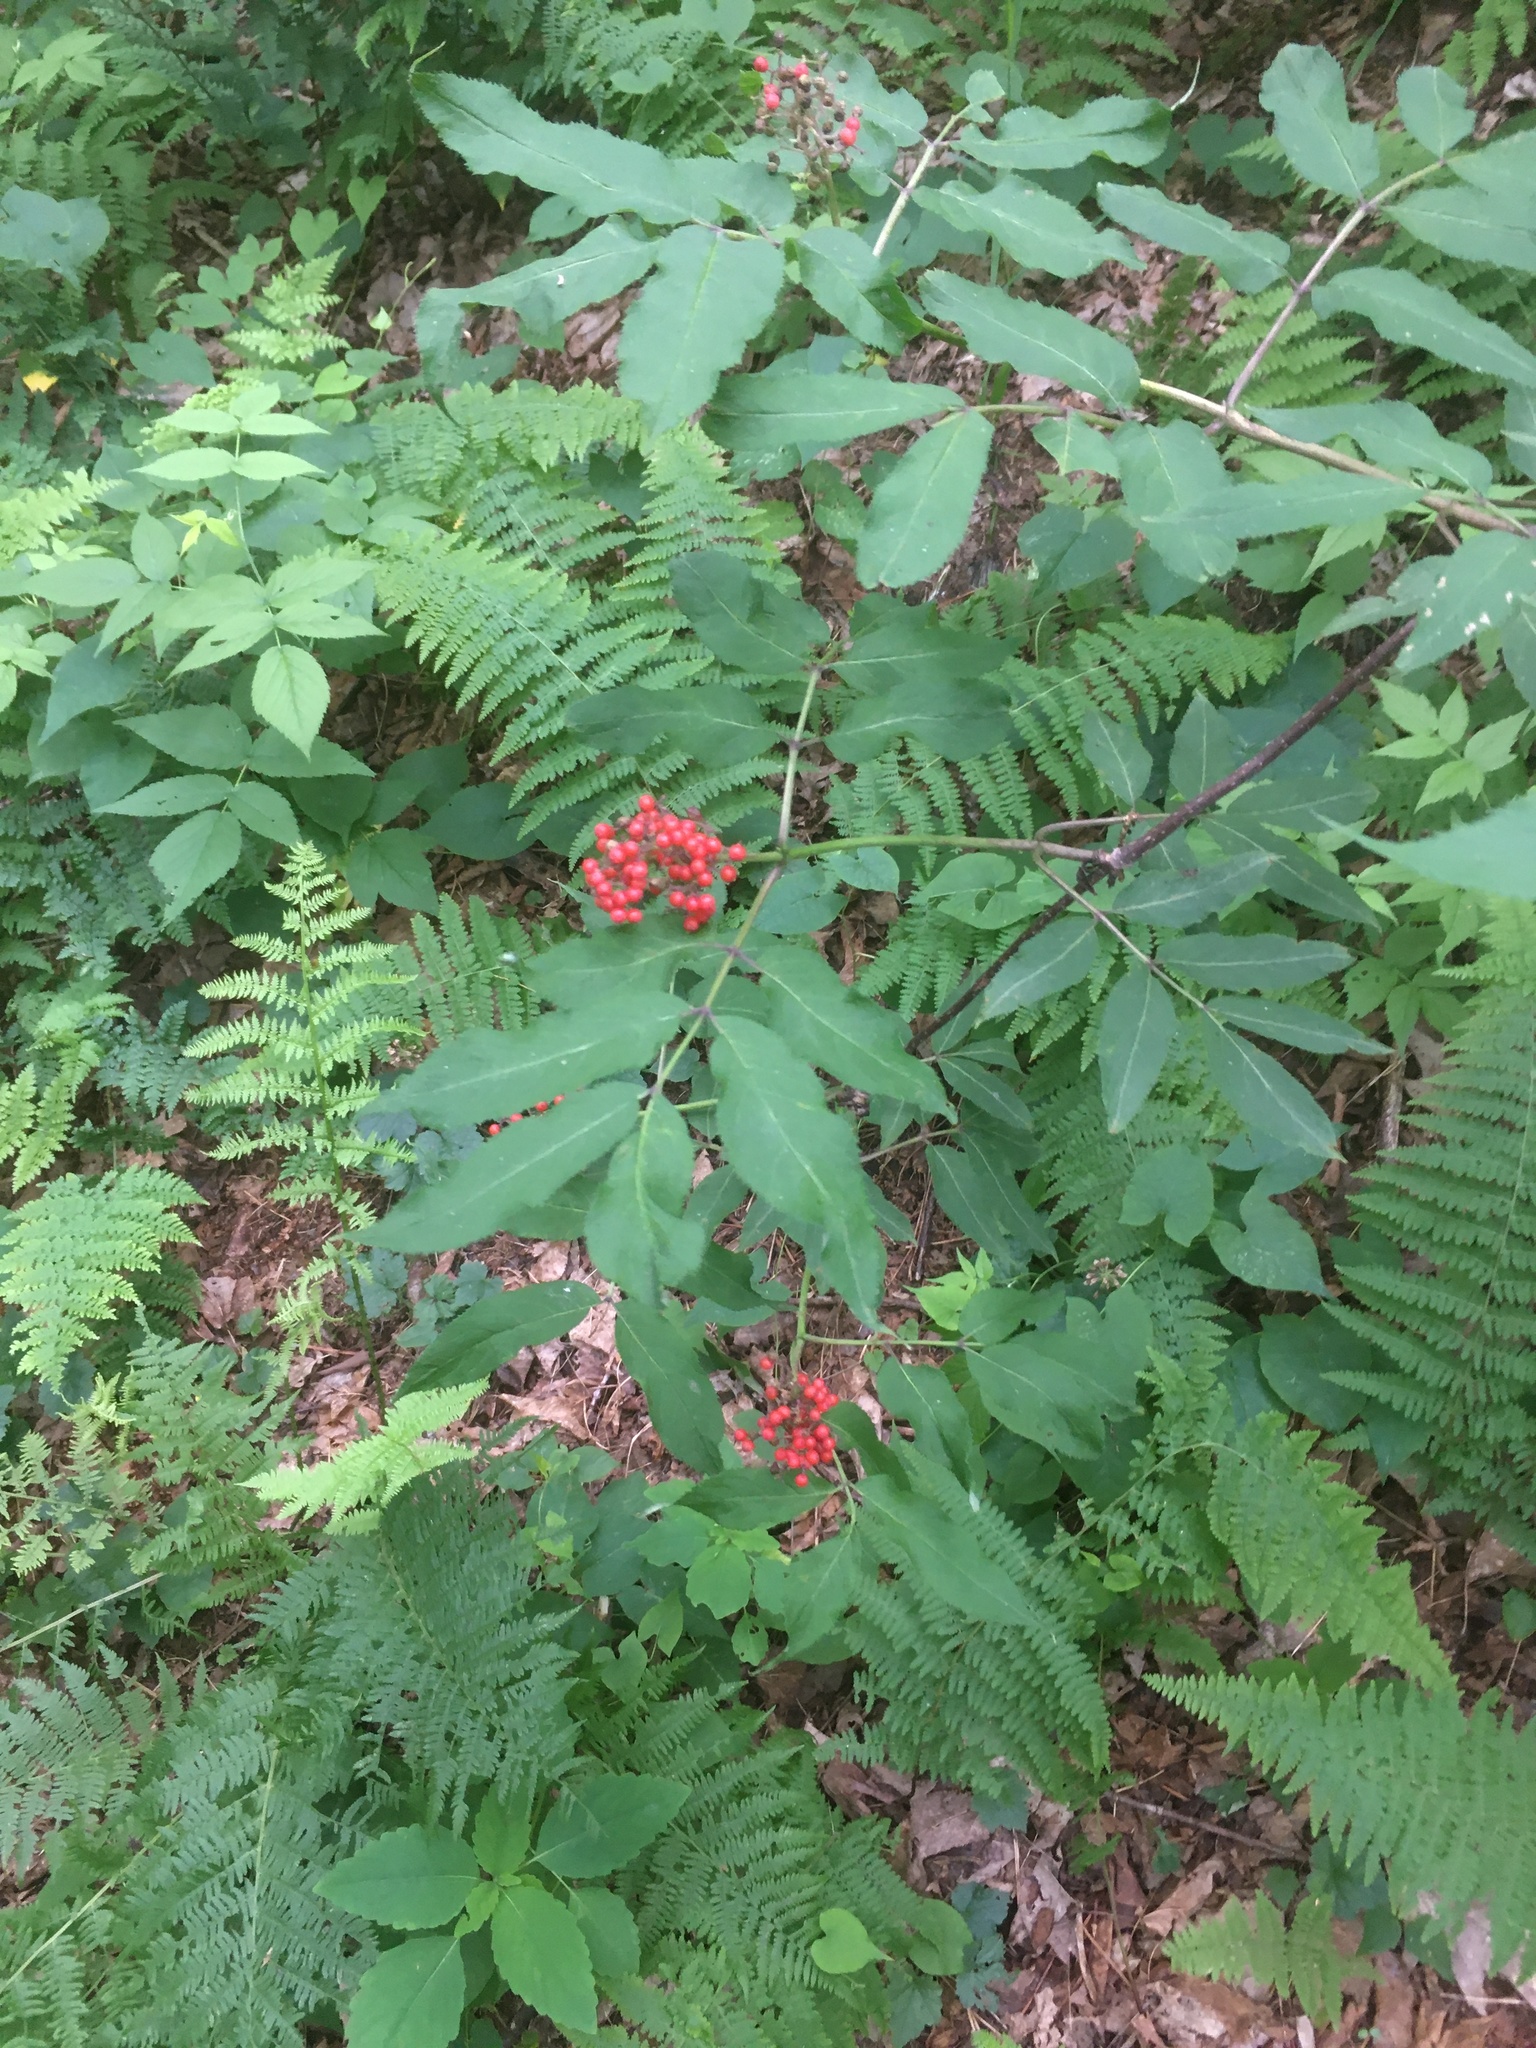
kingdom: Plantae
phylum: Tracheophyta
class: Magnoliopsida
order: Dipsacales
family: Viburnaceae
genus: Sambucus
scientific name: Sambucus racemosa
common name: Red-berried elder
